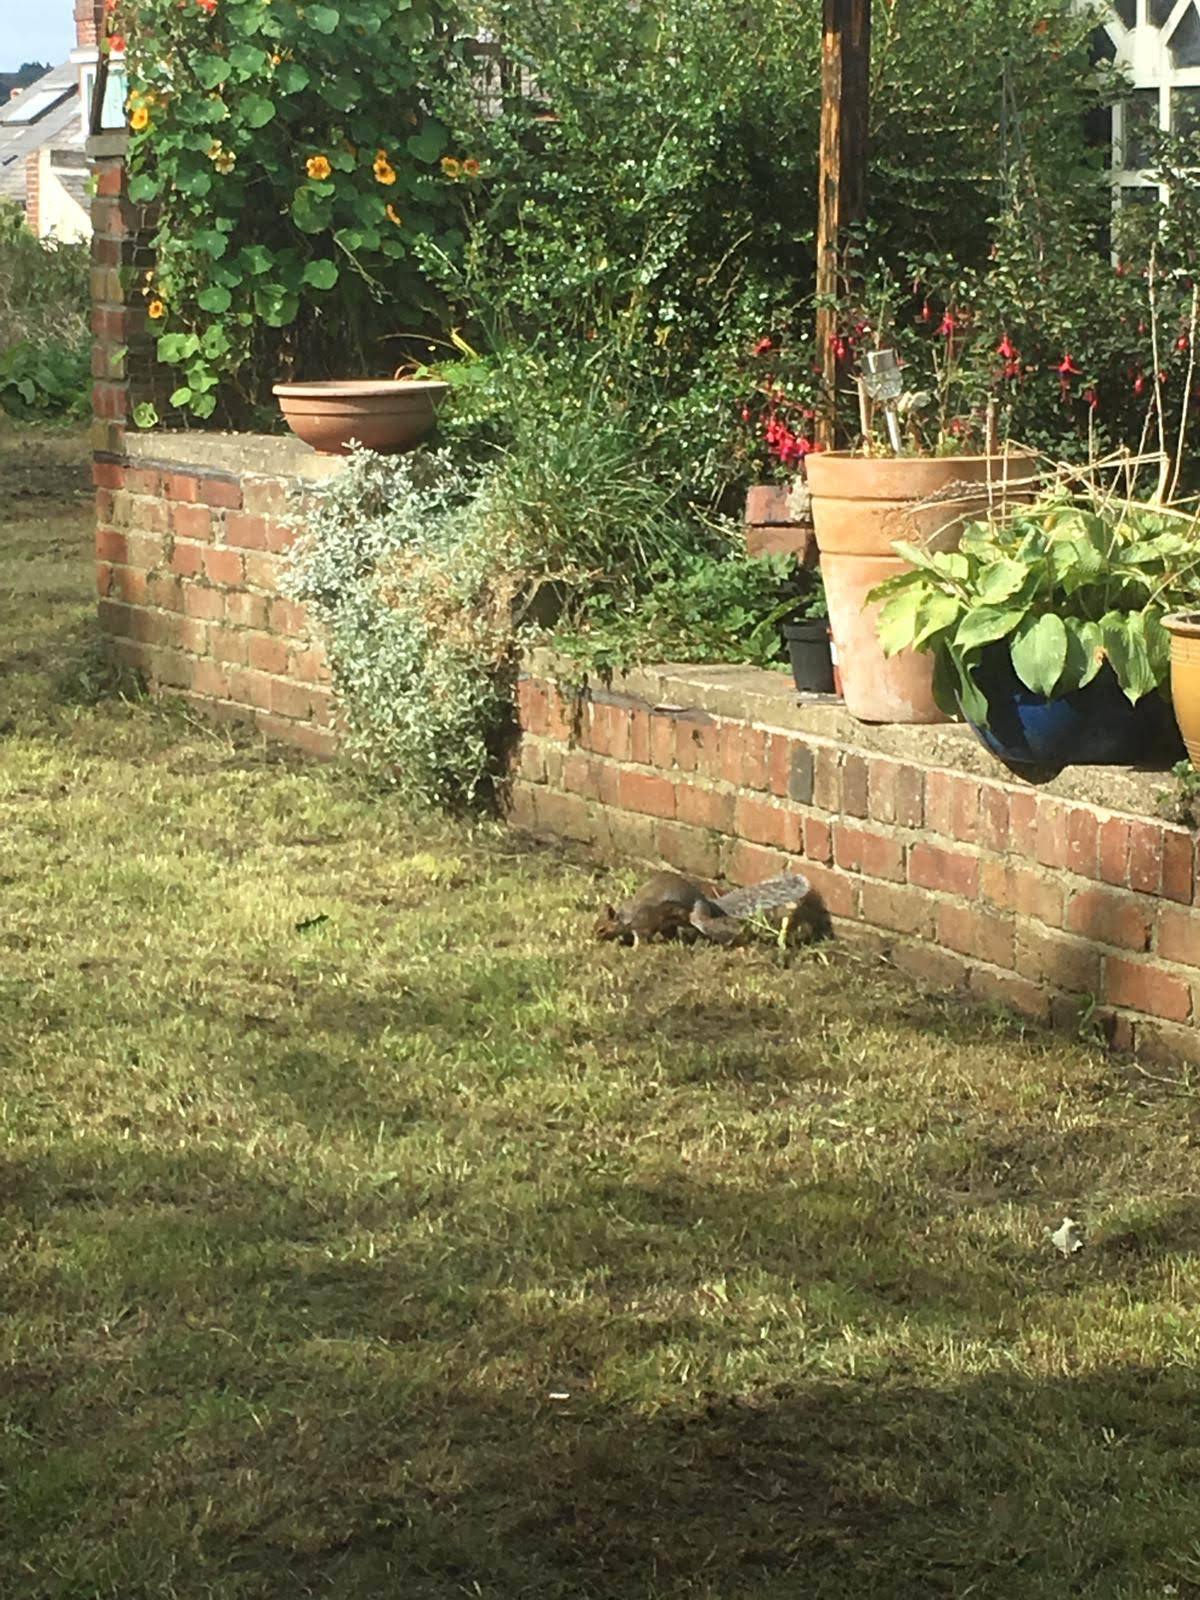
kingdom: Animalia
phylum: Chordata
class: Mammalia
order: Rodentia
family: Sciuridae
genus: Sciurus
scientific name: Sciurus carolinensis
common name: Eastern gray squirrel
